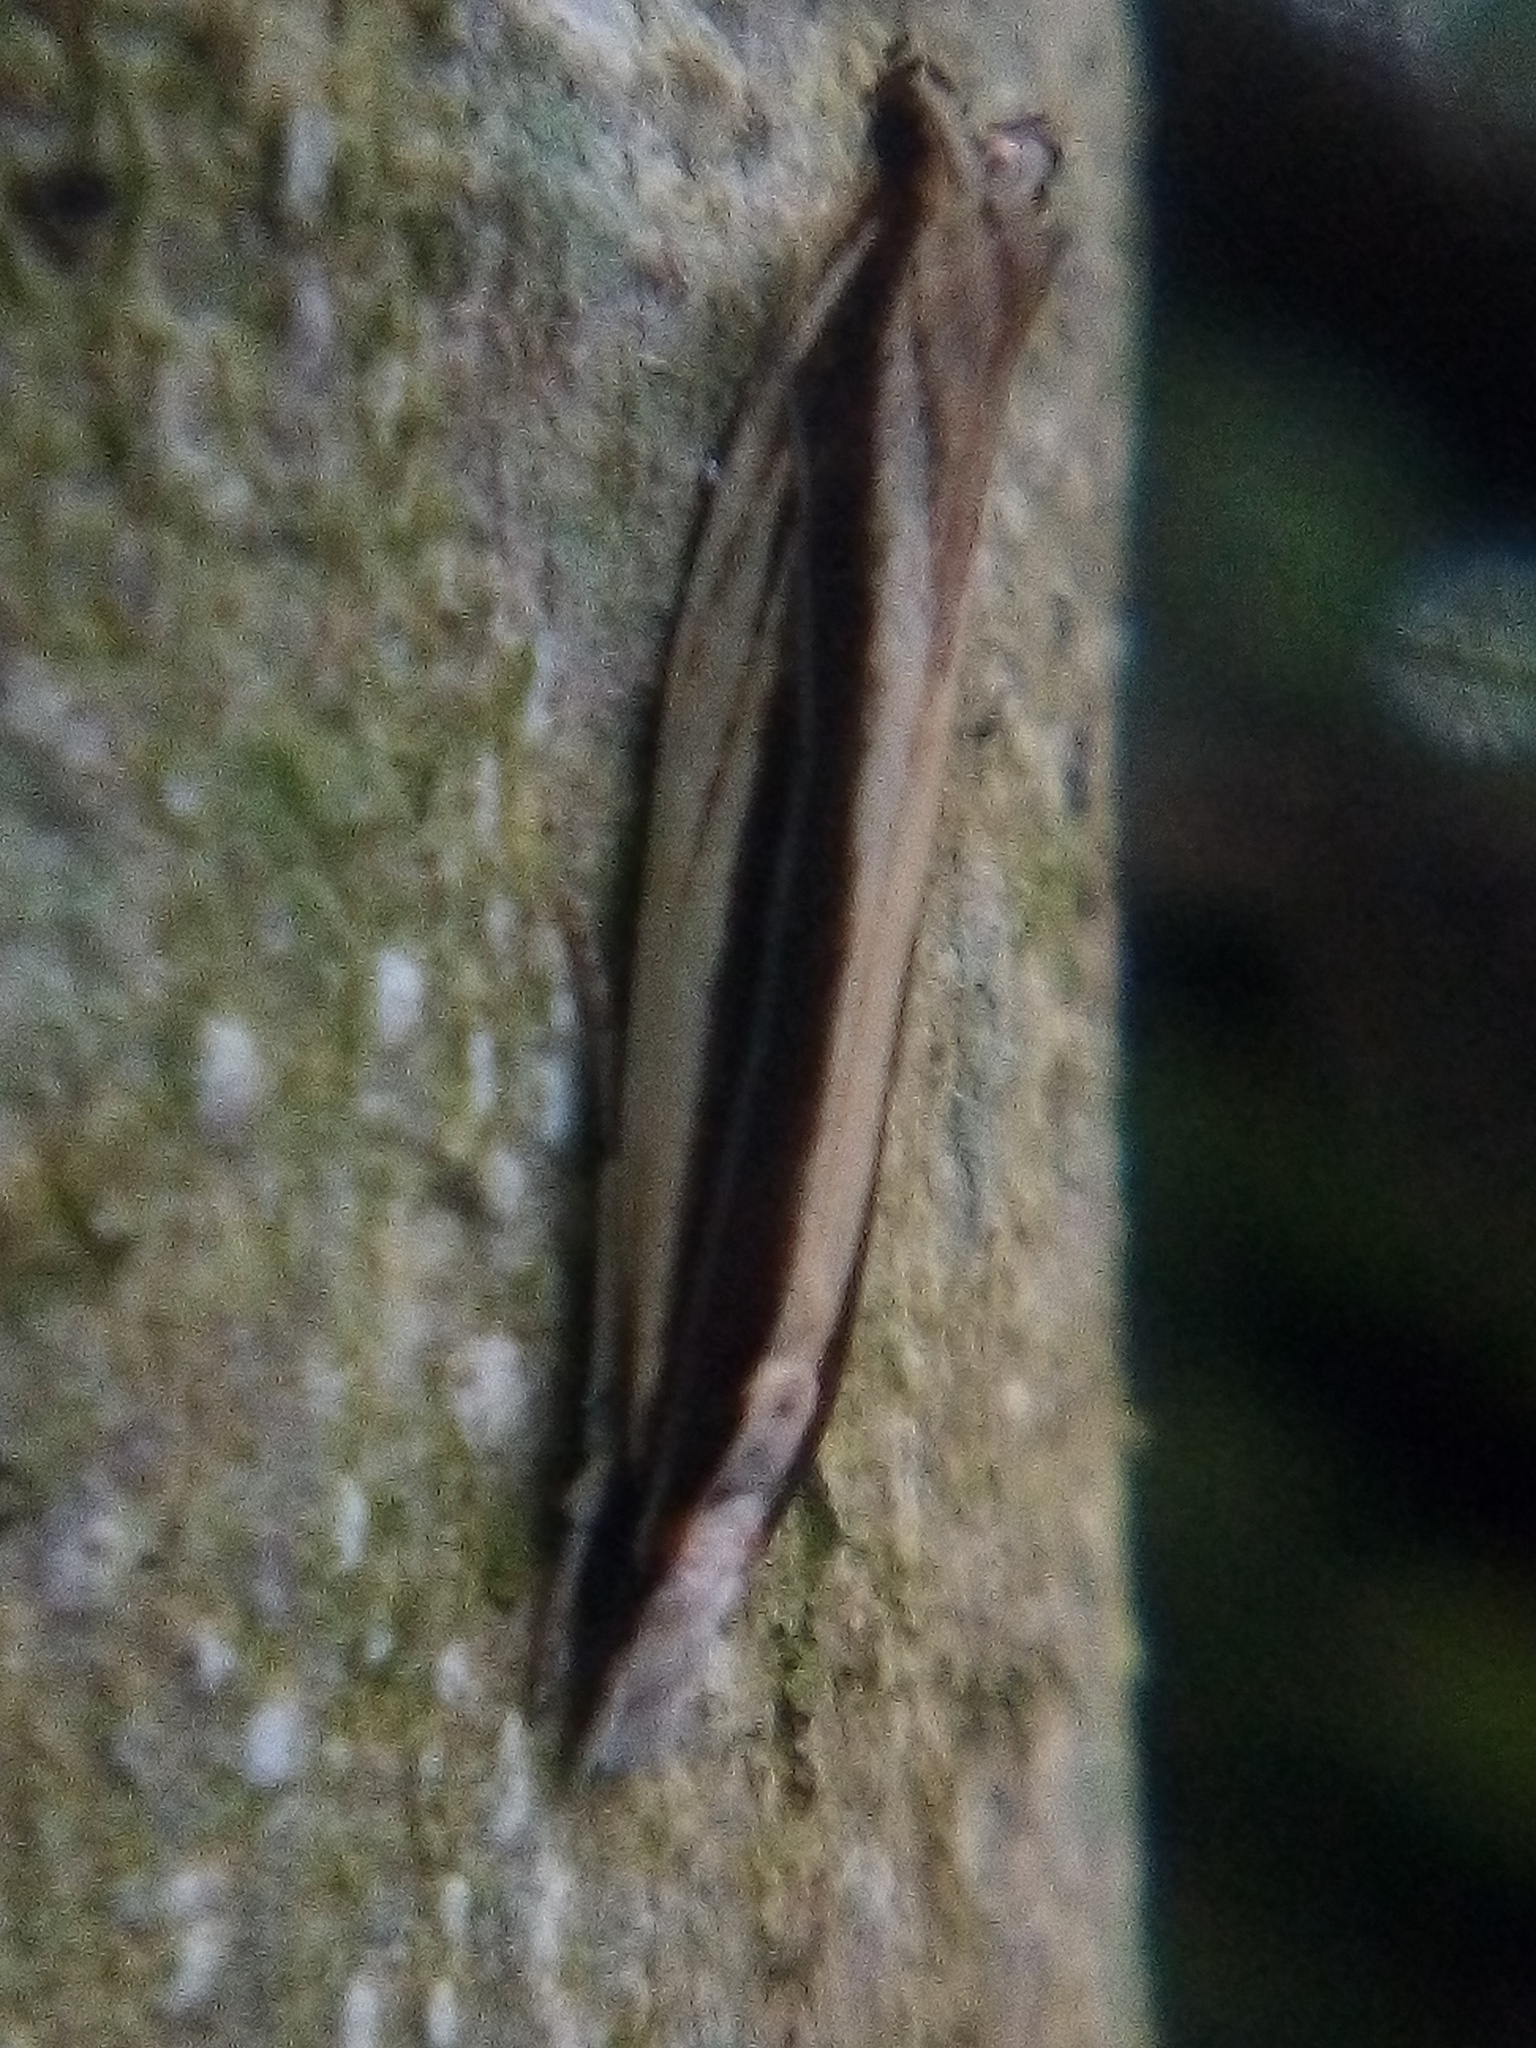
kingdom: Animalia
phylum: Arthropoda
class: Insecta
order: Lepidoptera
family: Tineidae
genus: Erechthias
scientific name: Erechthias stilbella
